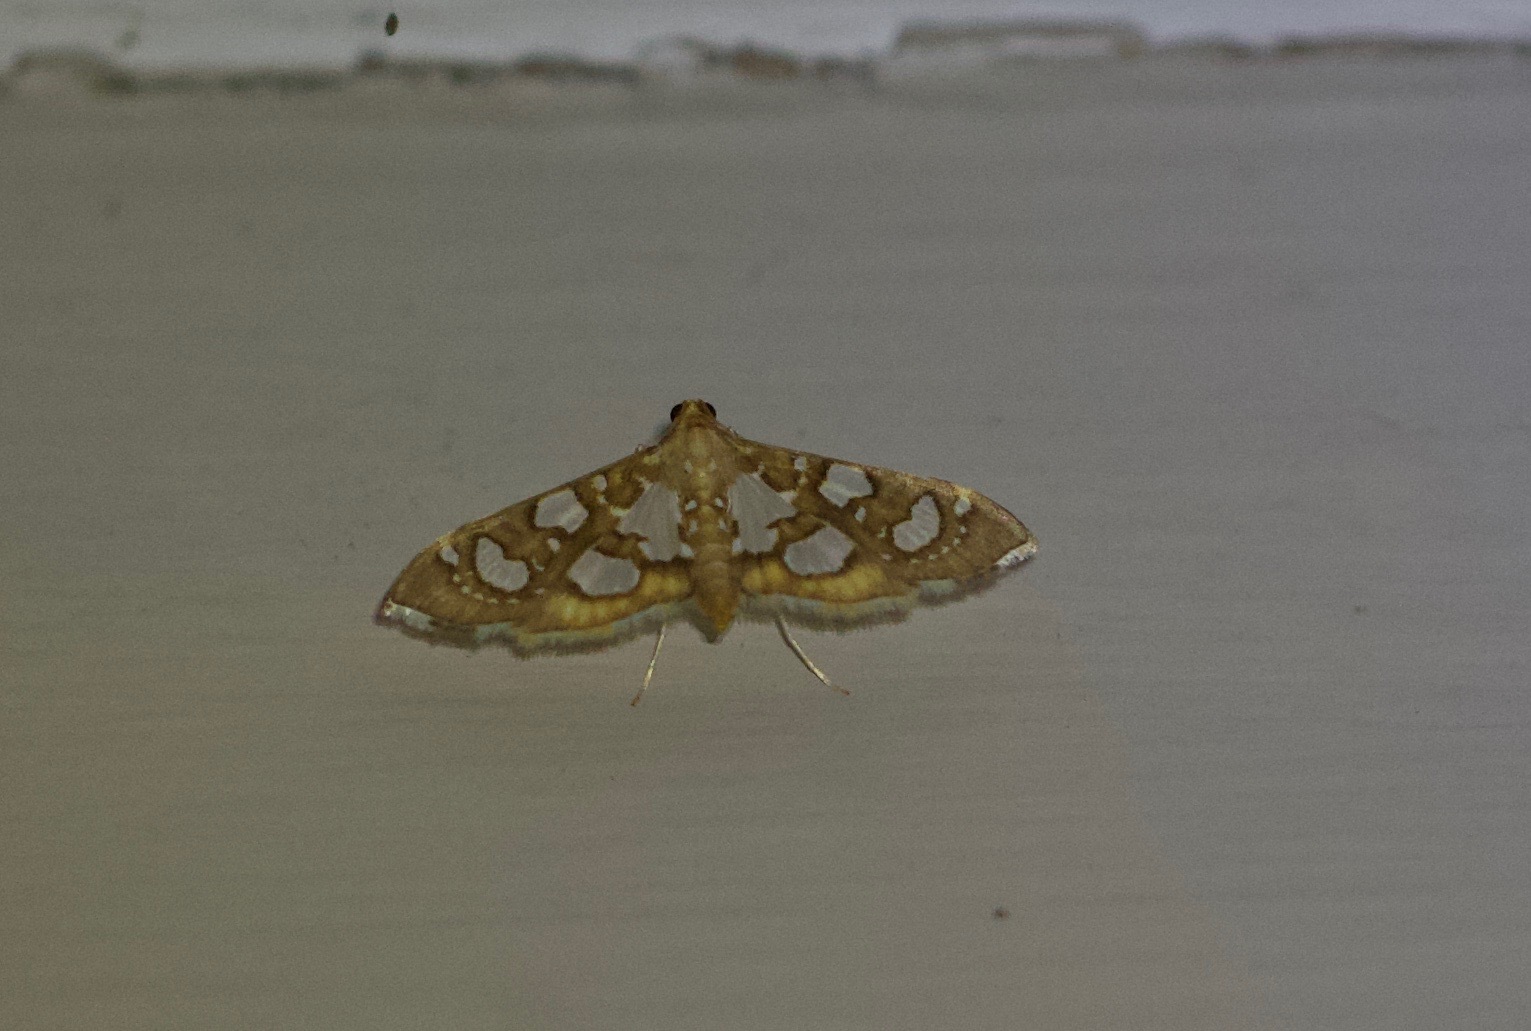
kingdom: Animalia
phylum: Arthropoda
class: Insecta
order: Lepidoptera
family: Crambidae
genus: Glyphodella
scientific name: Glyphodella flavibrunnea
